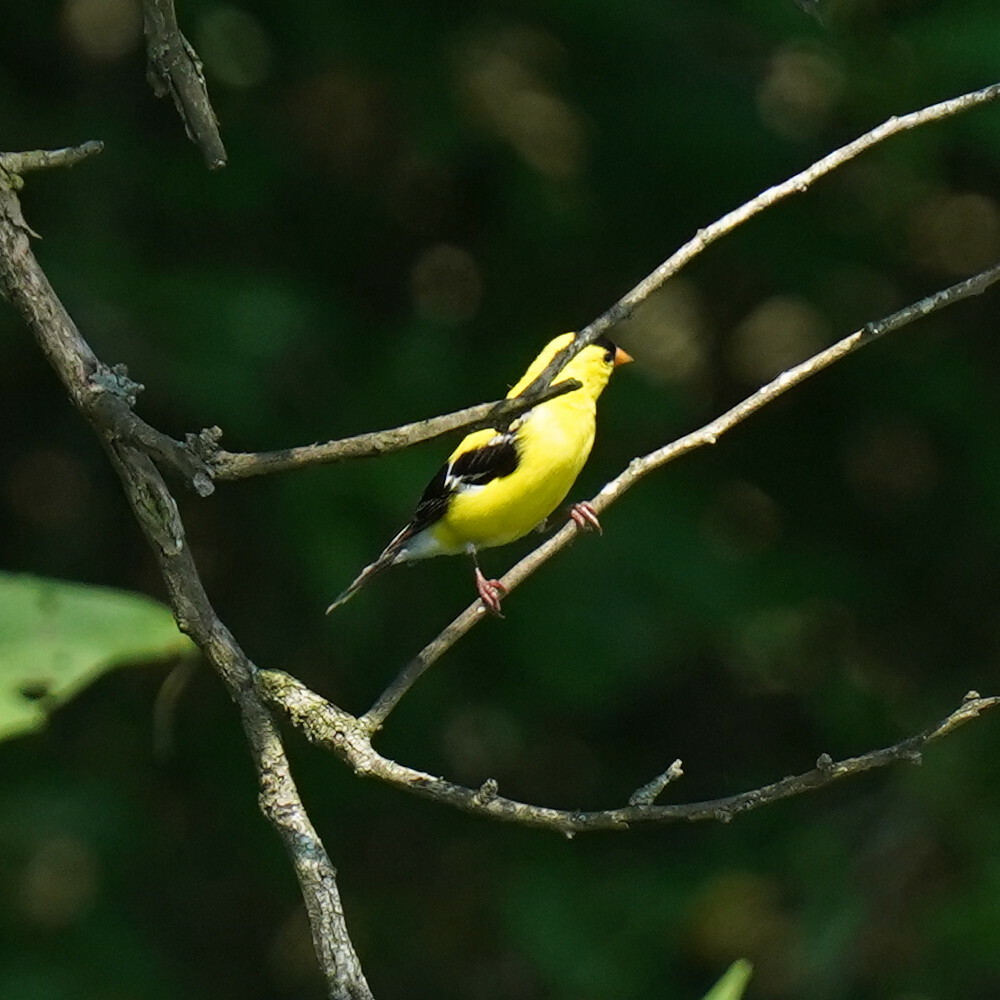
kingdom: Animalia
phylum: Chordata
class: Aves
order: Passeriformes
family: Fringillidae
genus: Spinus
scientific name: Spinus tristis
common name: American goldfinch
